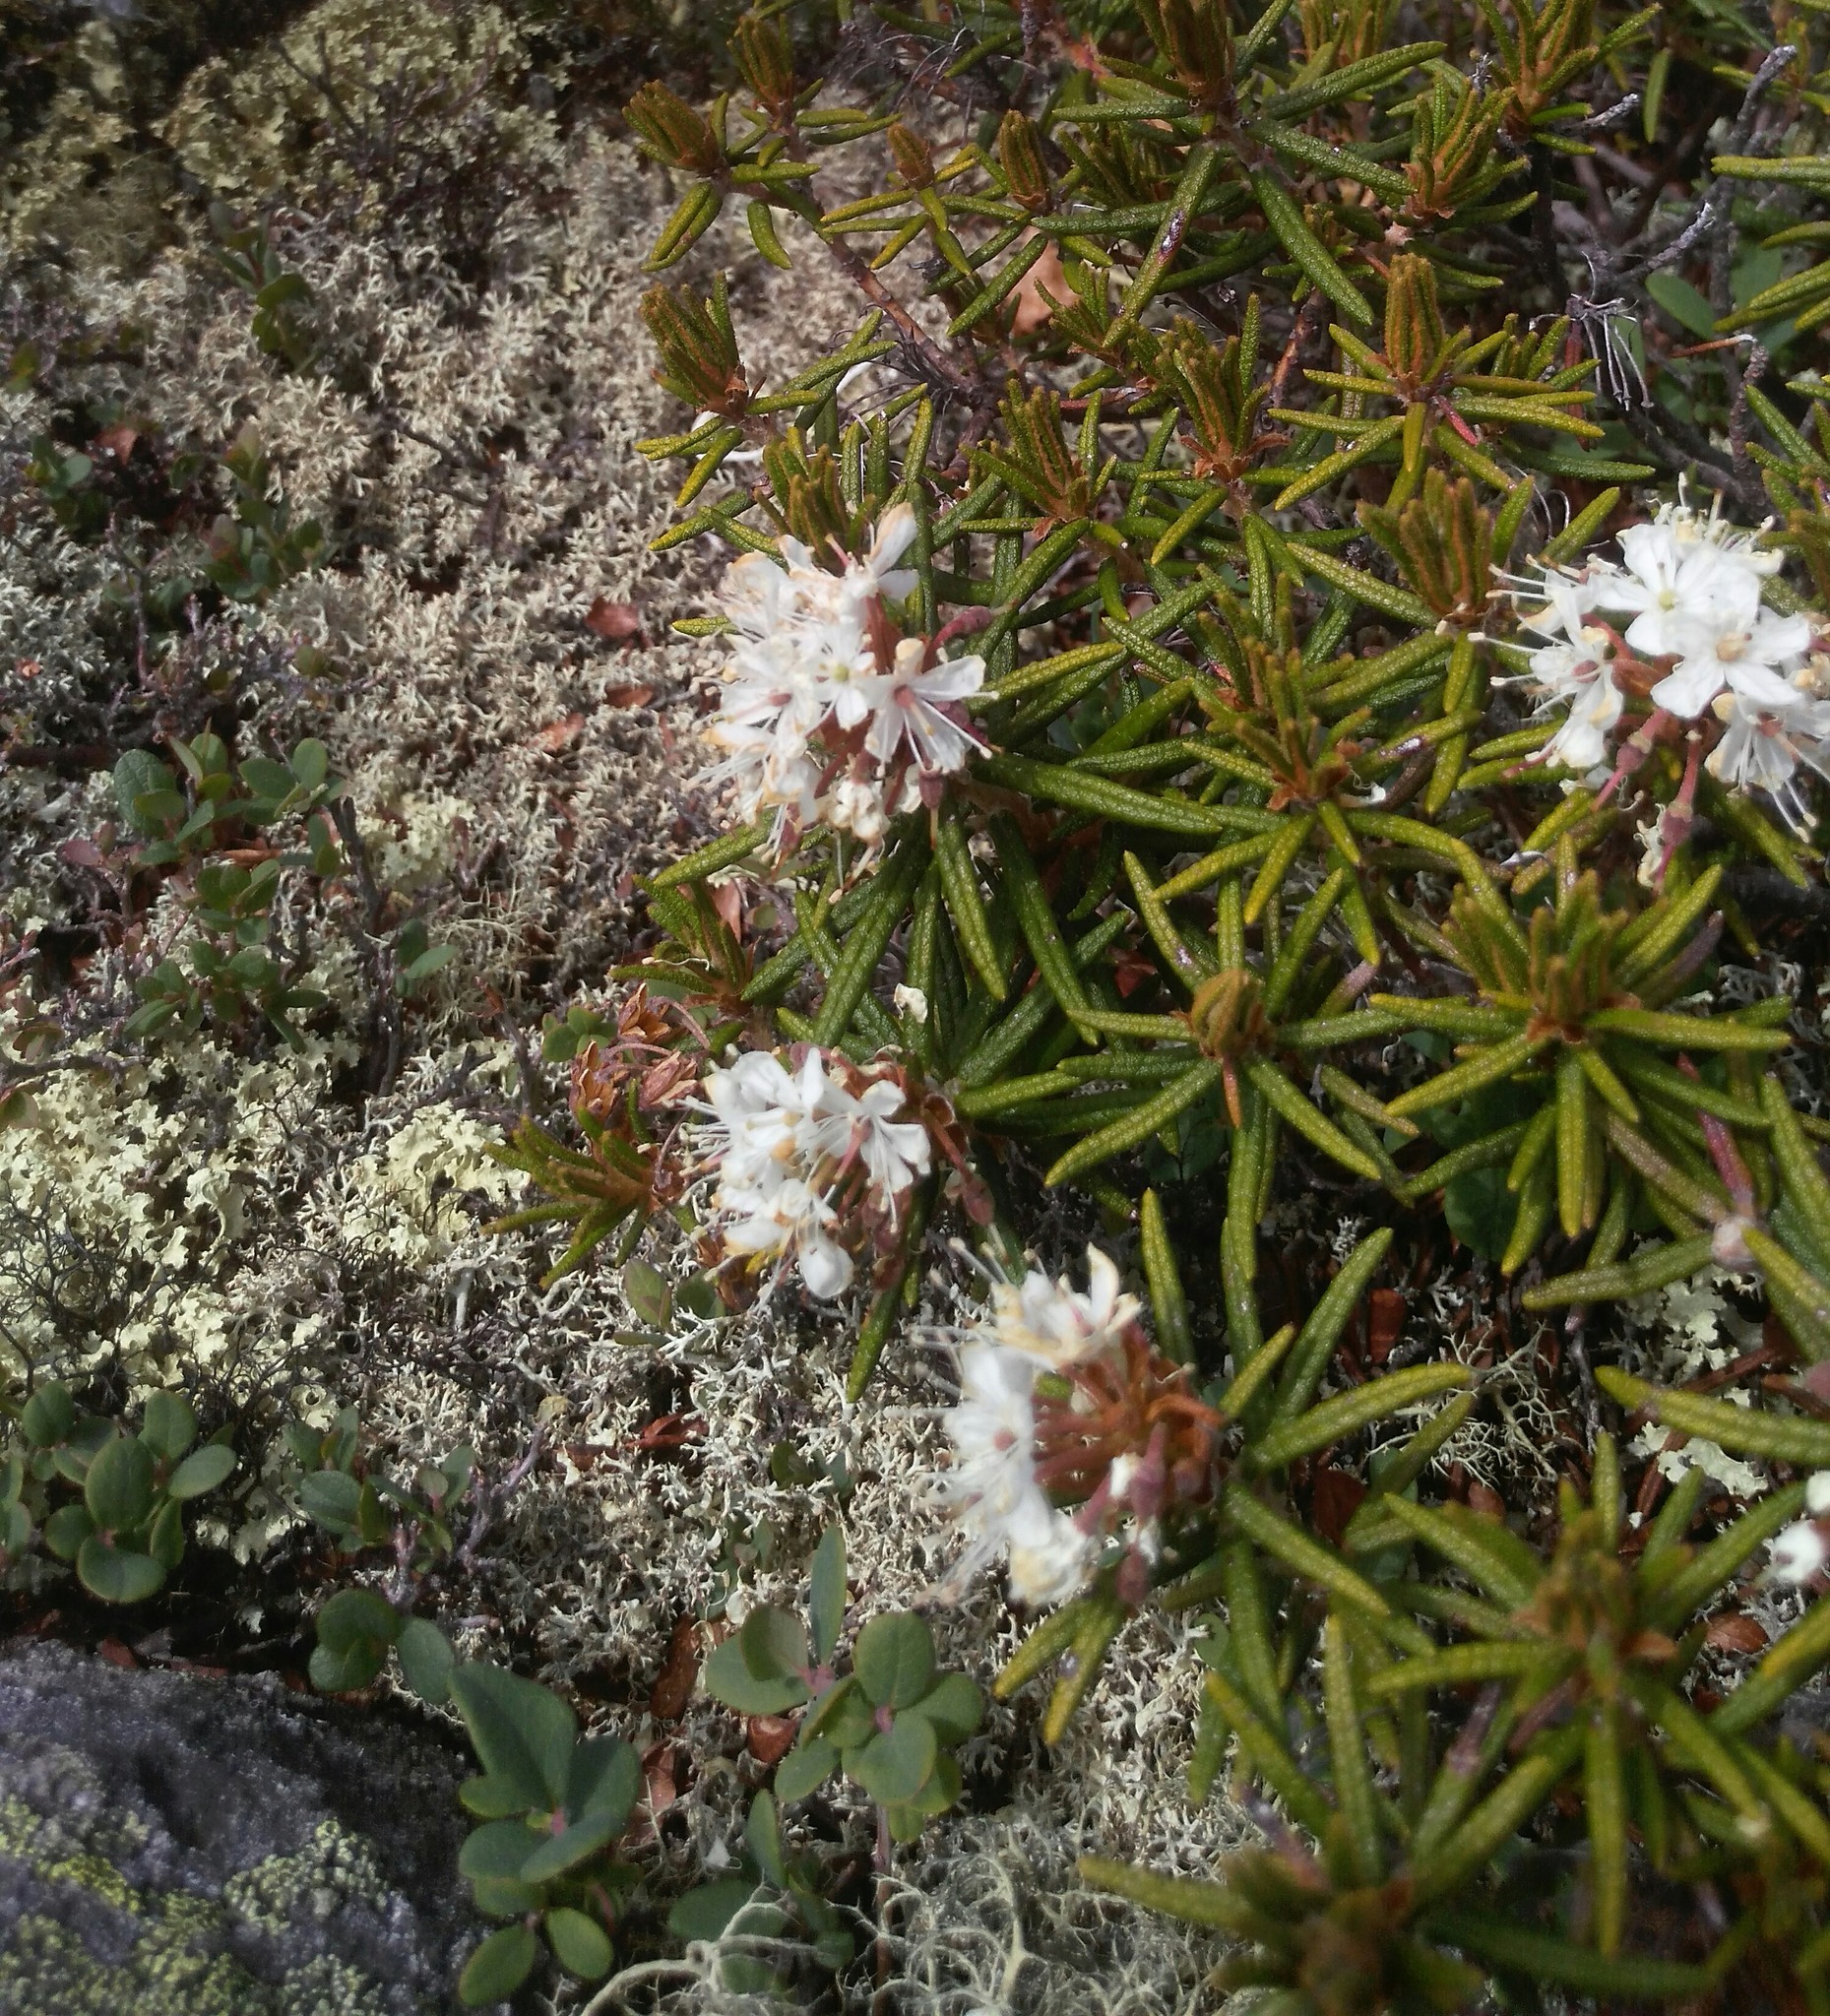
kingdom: Plantae
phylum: Tracheophyta
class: Magnoliopsida
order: Ericales
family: Ericaceae
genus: Rhododendron
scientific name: Rhododendron tomentosum
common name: Marsh labrador tea
